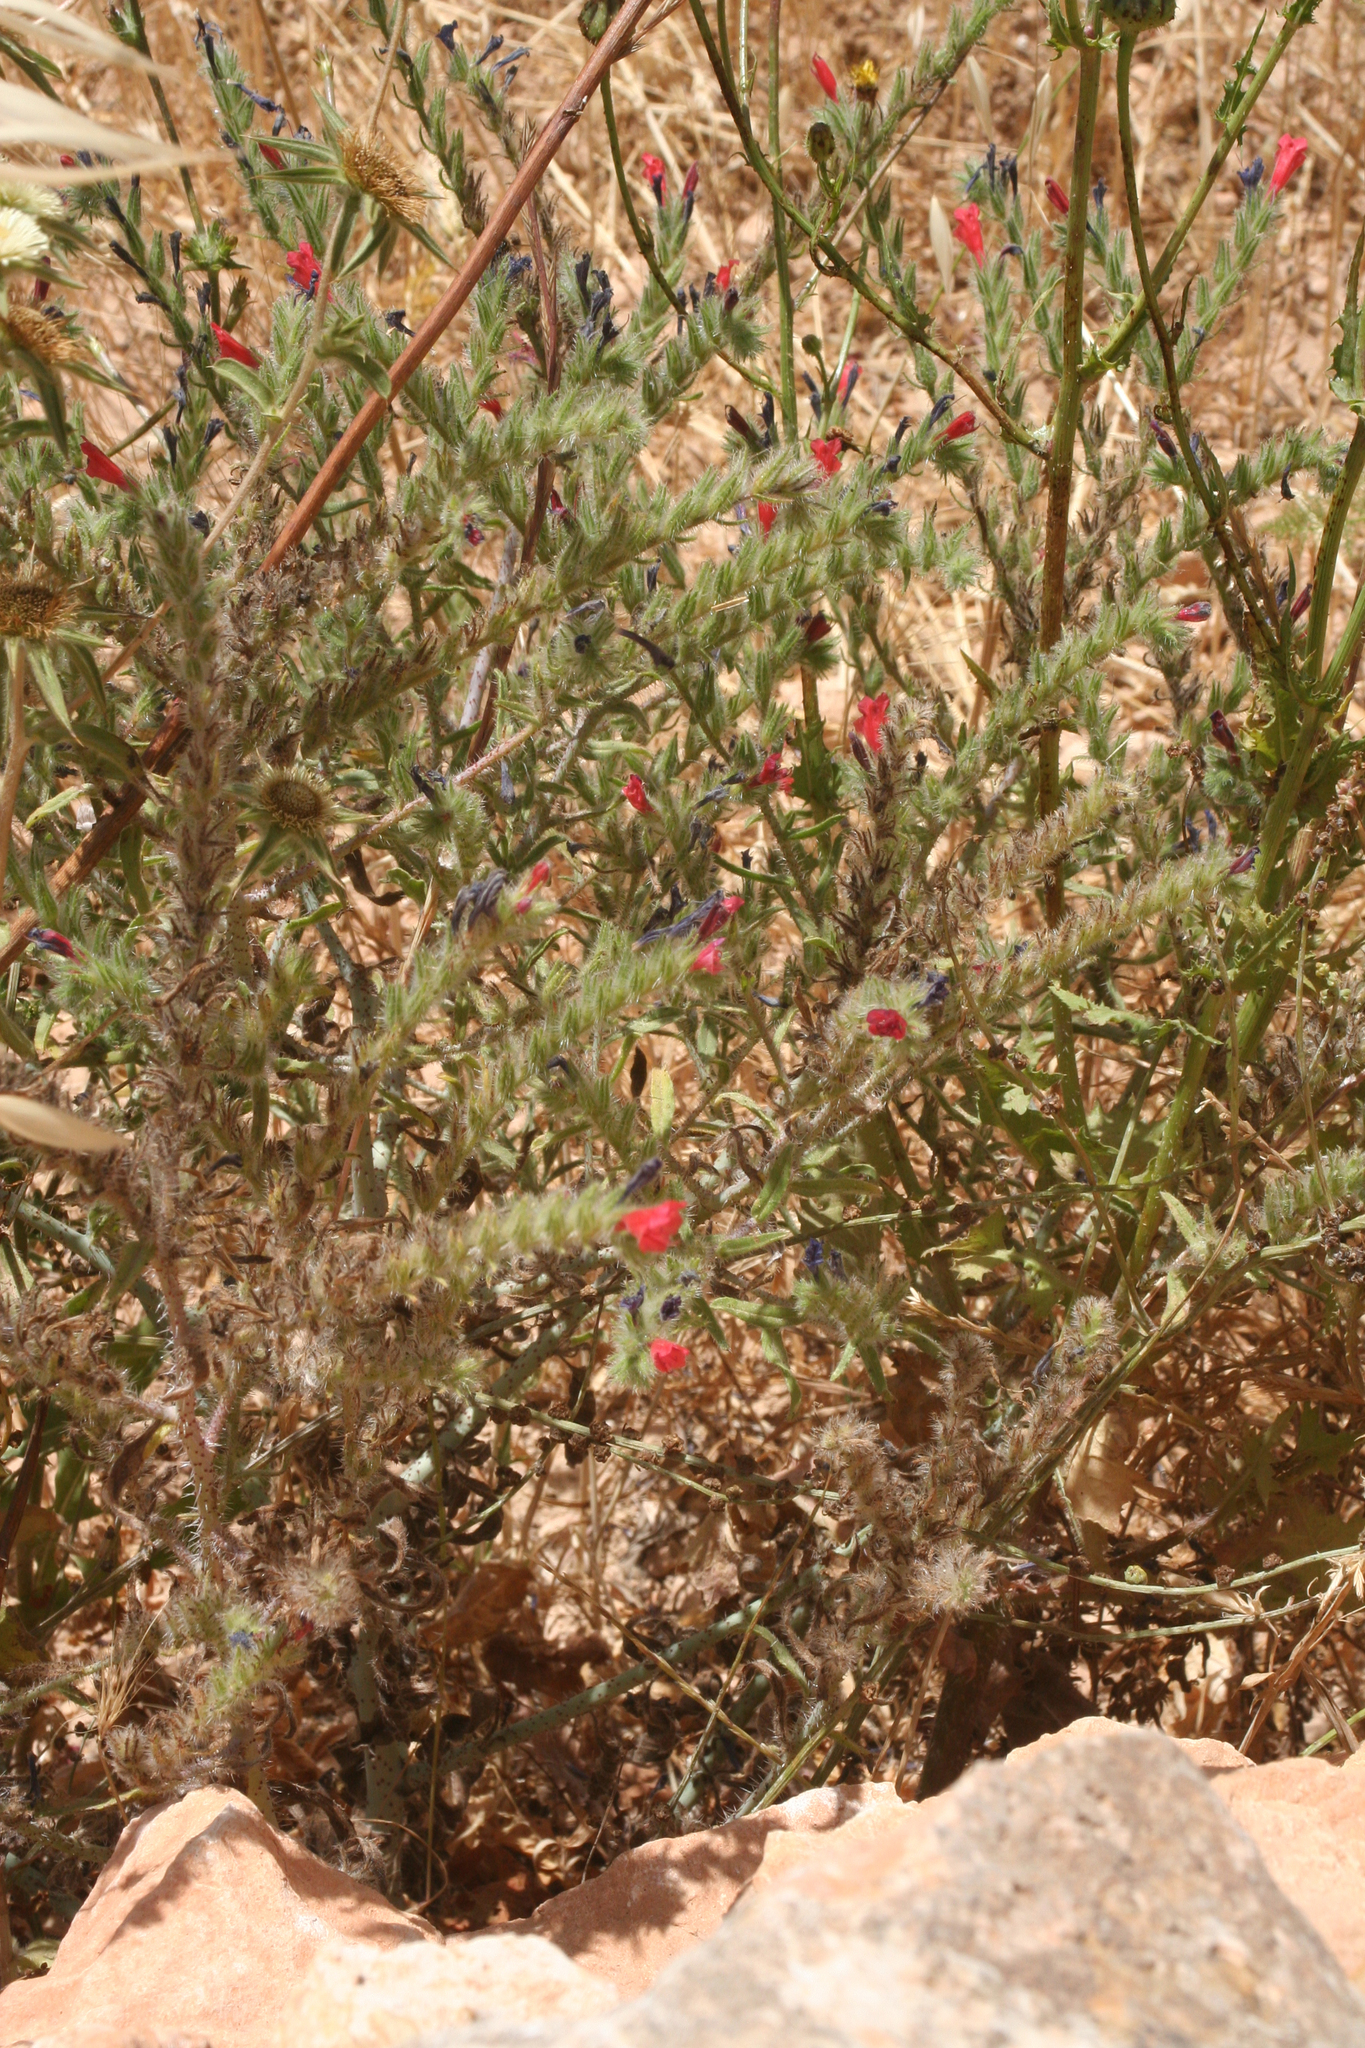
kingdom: Plantae
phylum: Tracheophyta
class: Magnoliopsida
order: Boraginales
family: Boraginaceae
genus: Echium
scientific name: Echium horridum
